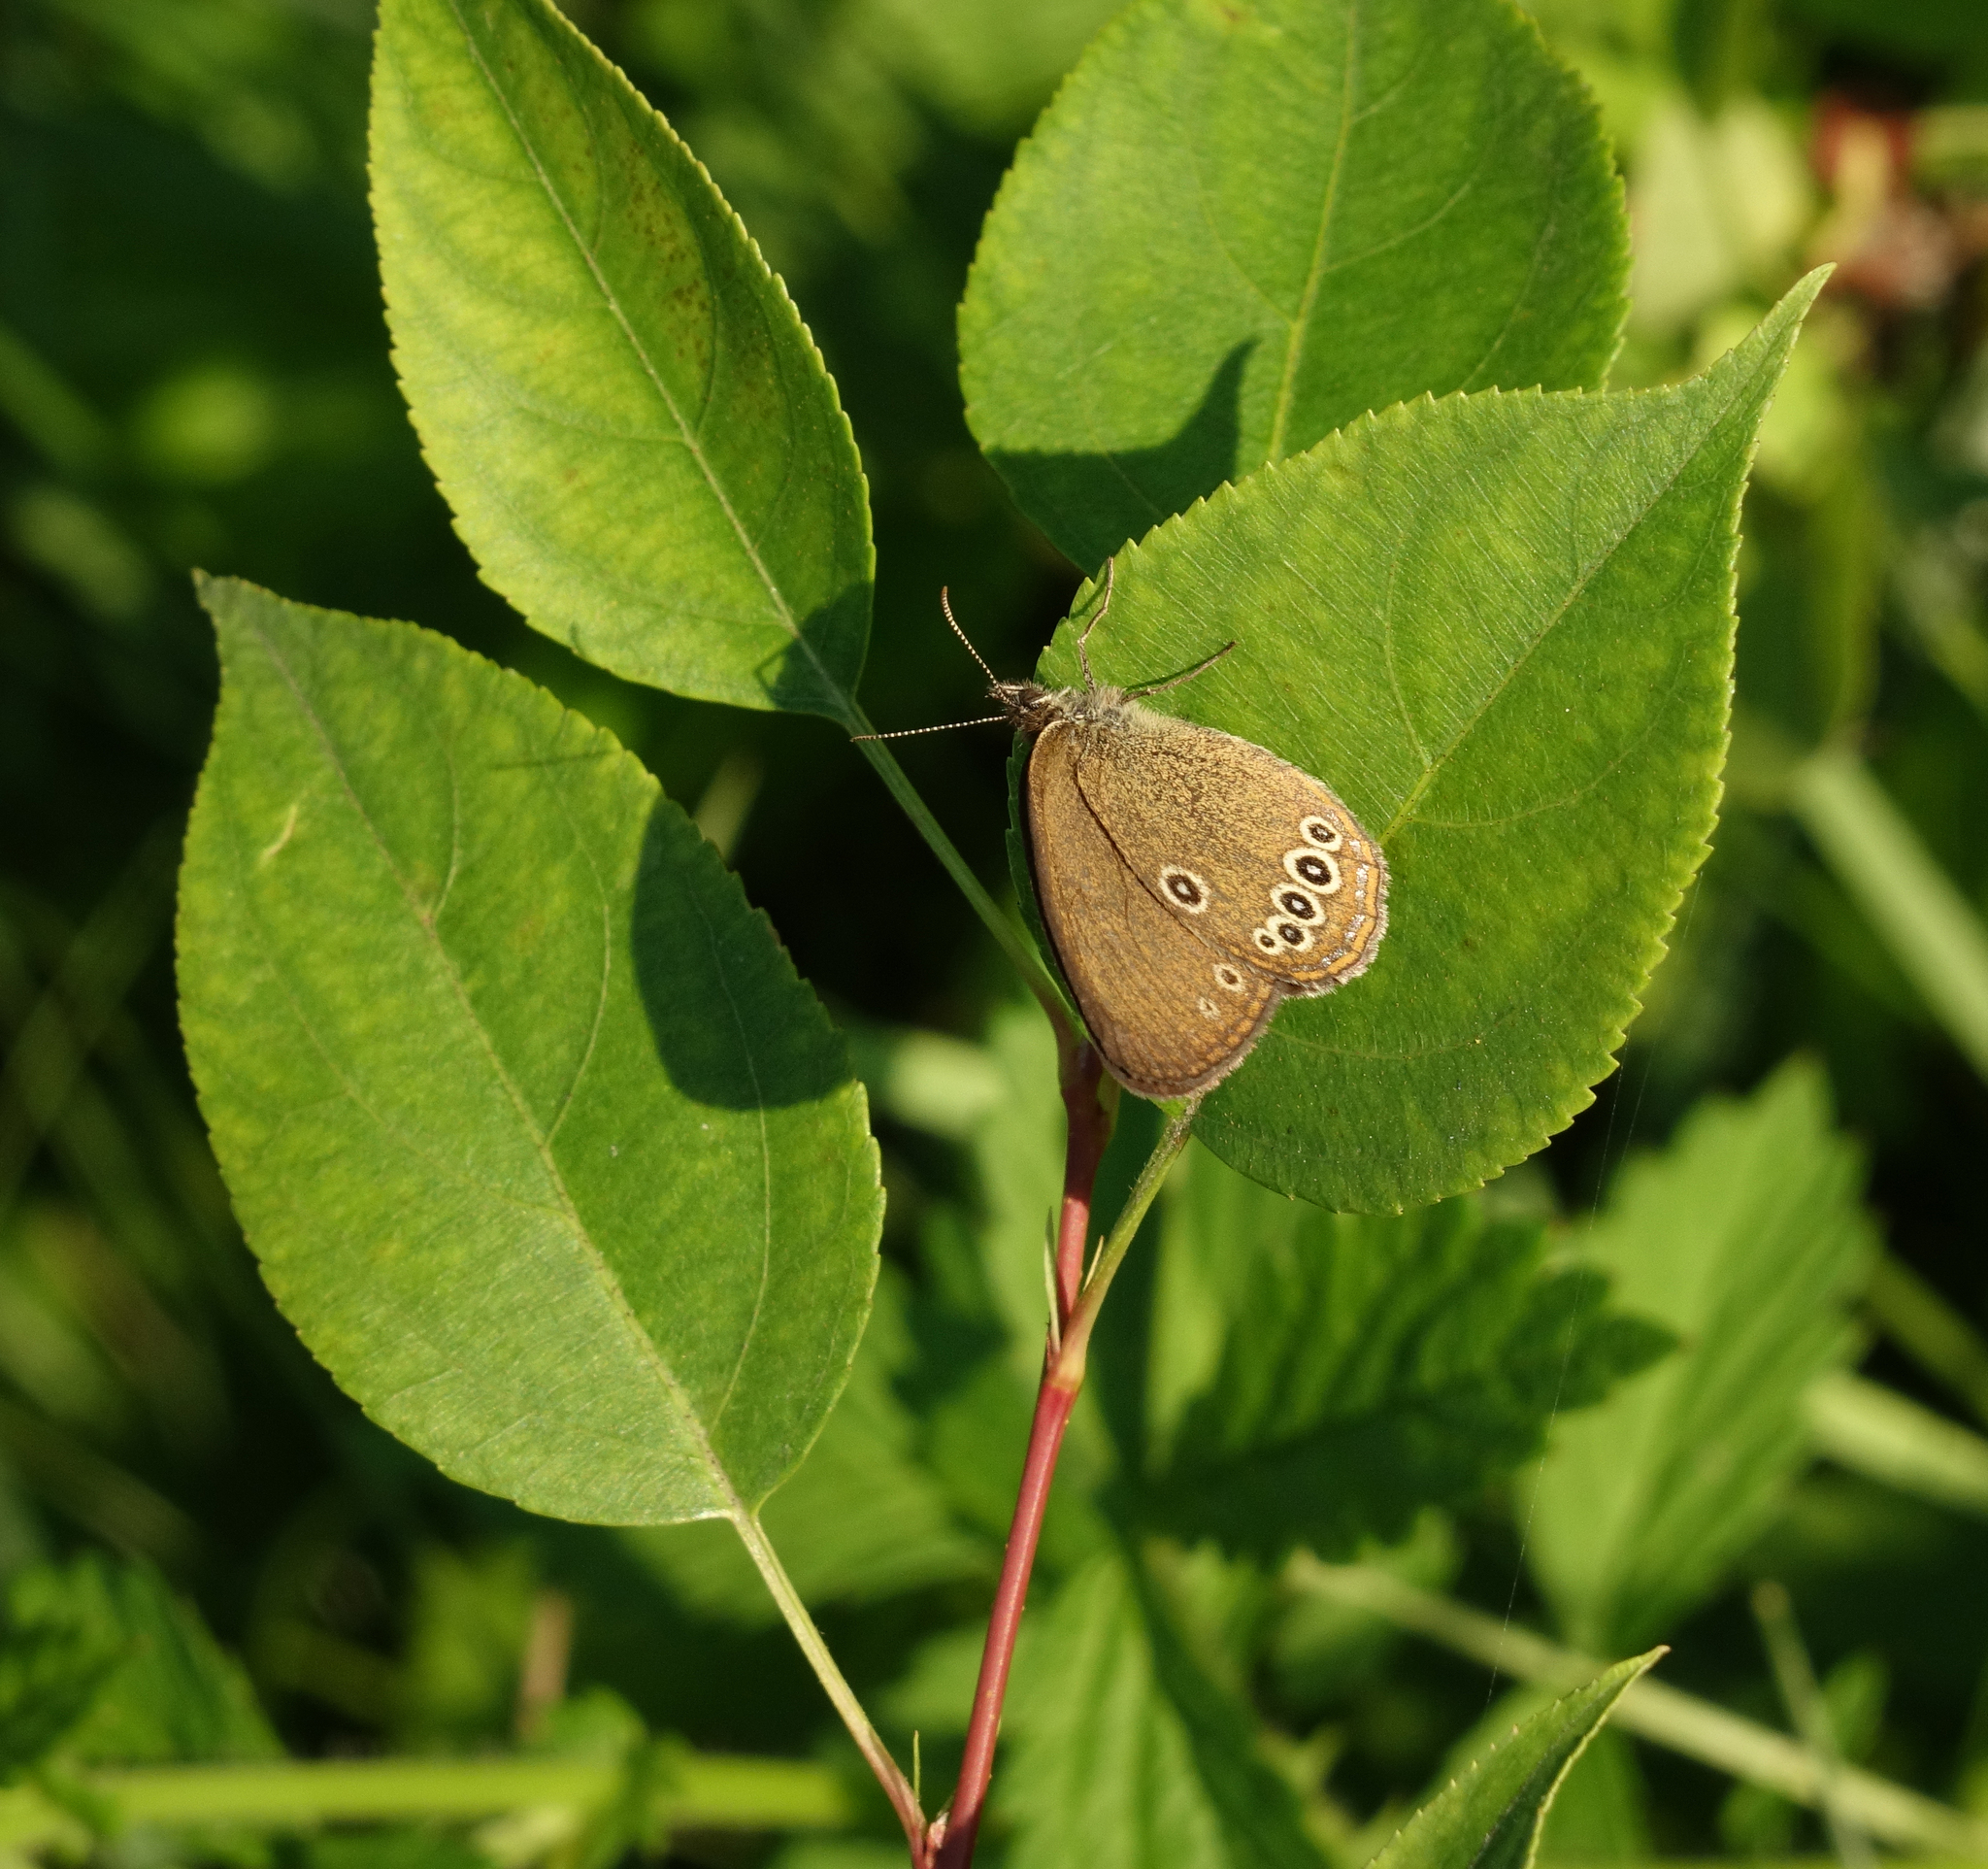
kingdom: Animalia
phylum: Arthropoda
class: Insecta
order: Lepidoptera
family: Nymphalidae
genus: Coenonympha
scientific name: Coenonympha oedippus
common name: False ringlet
